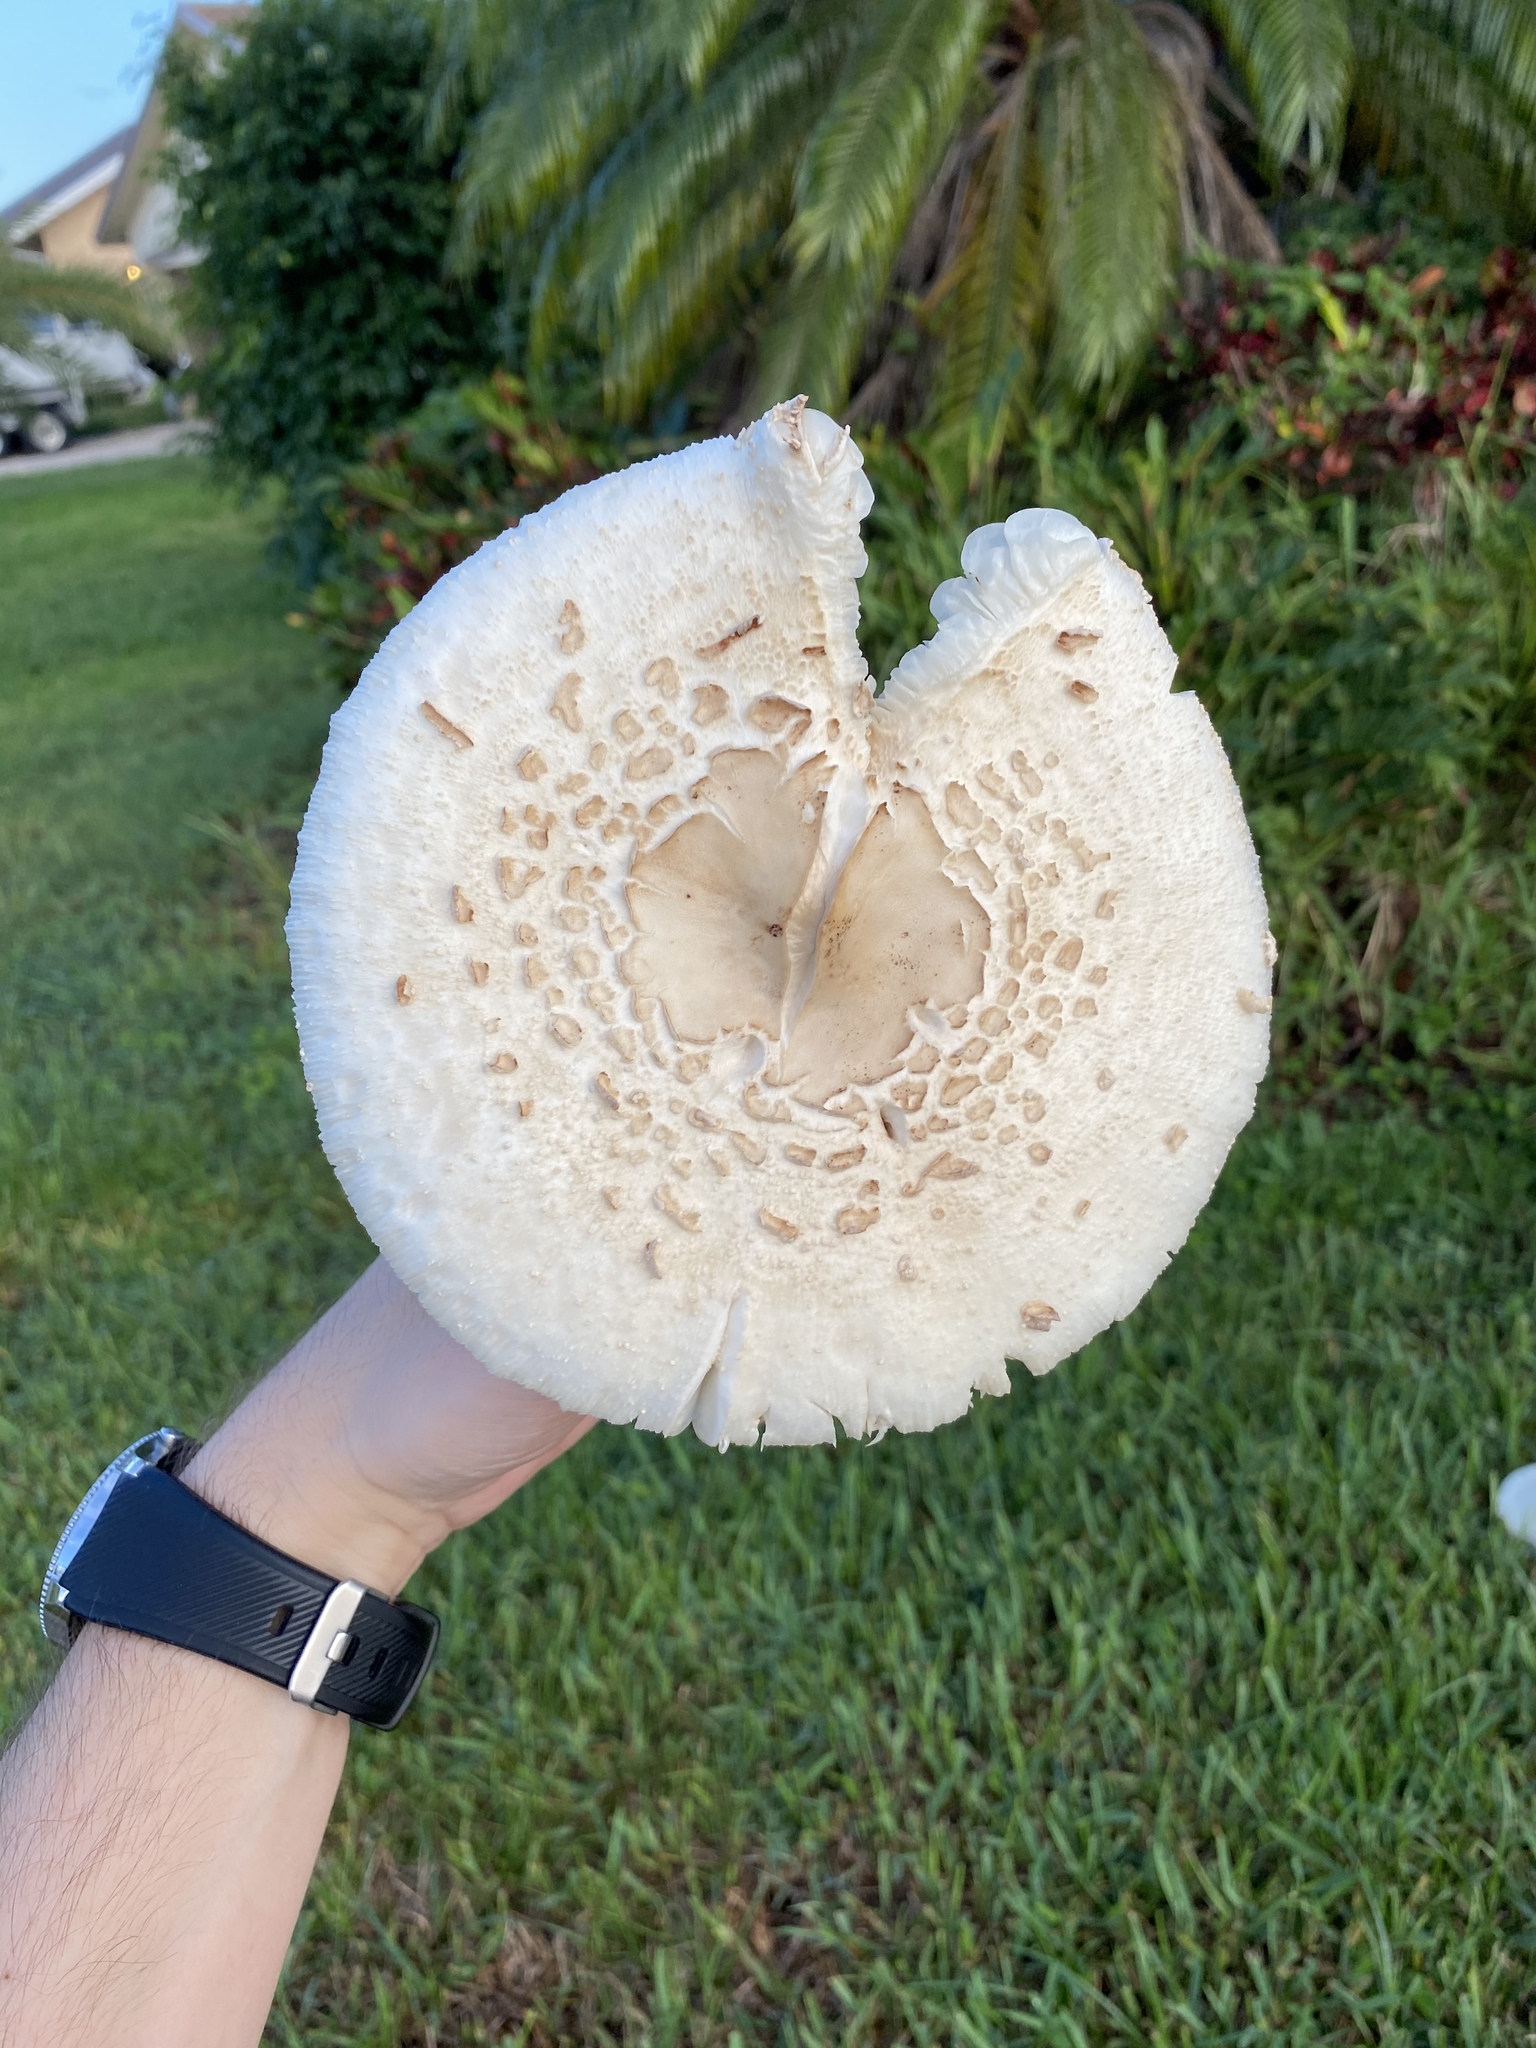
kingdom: Fungi
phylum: Basidiomycota
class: Agaricomycetes
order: Agaricales
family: Agaricaceae
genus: Chlorophyllum
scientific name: Chlorophyllum molybdites
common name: False parasol
